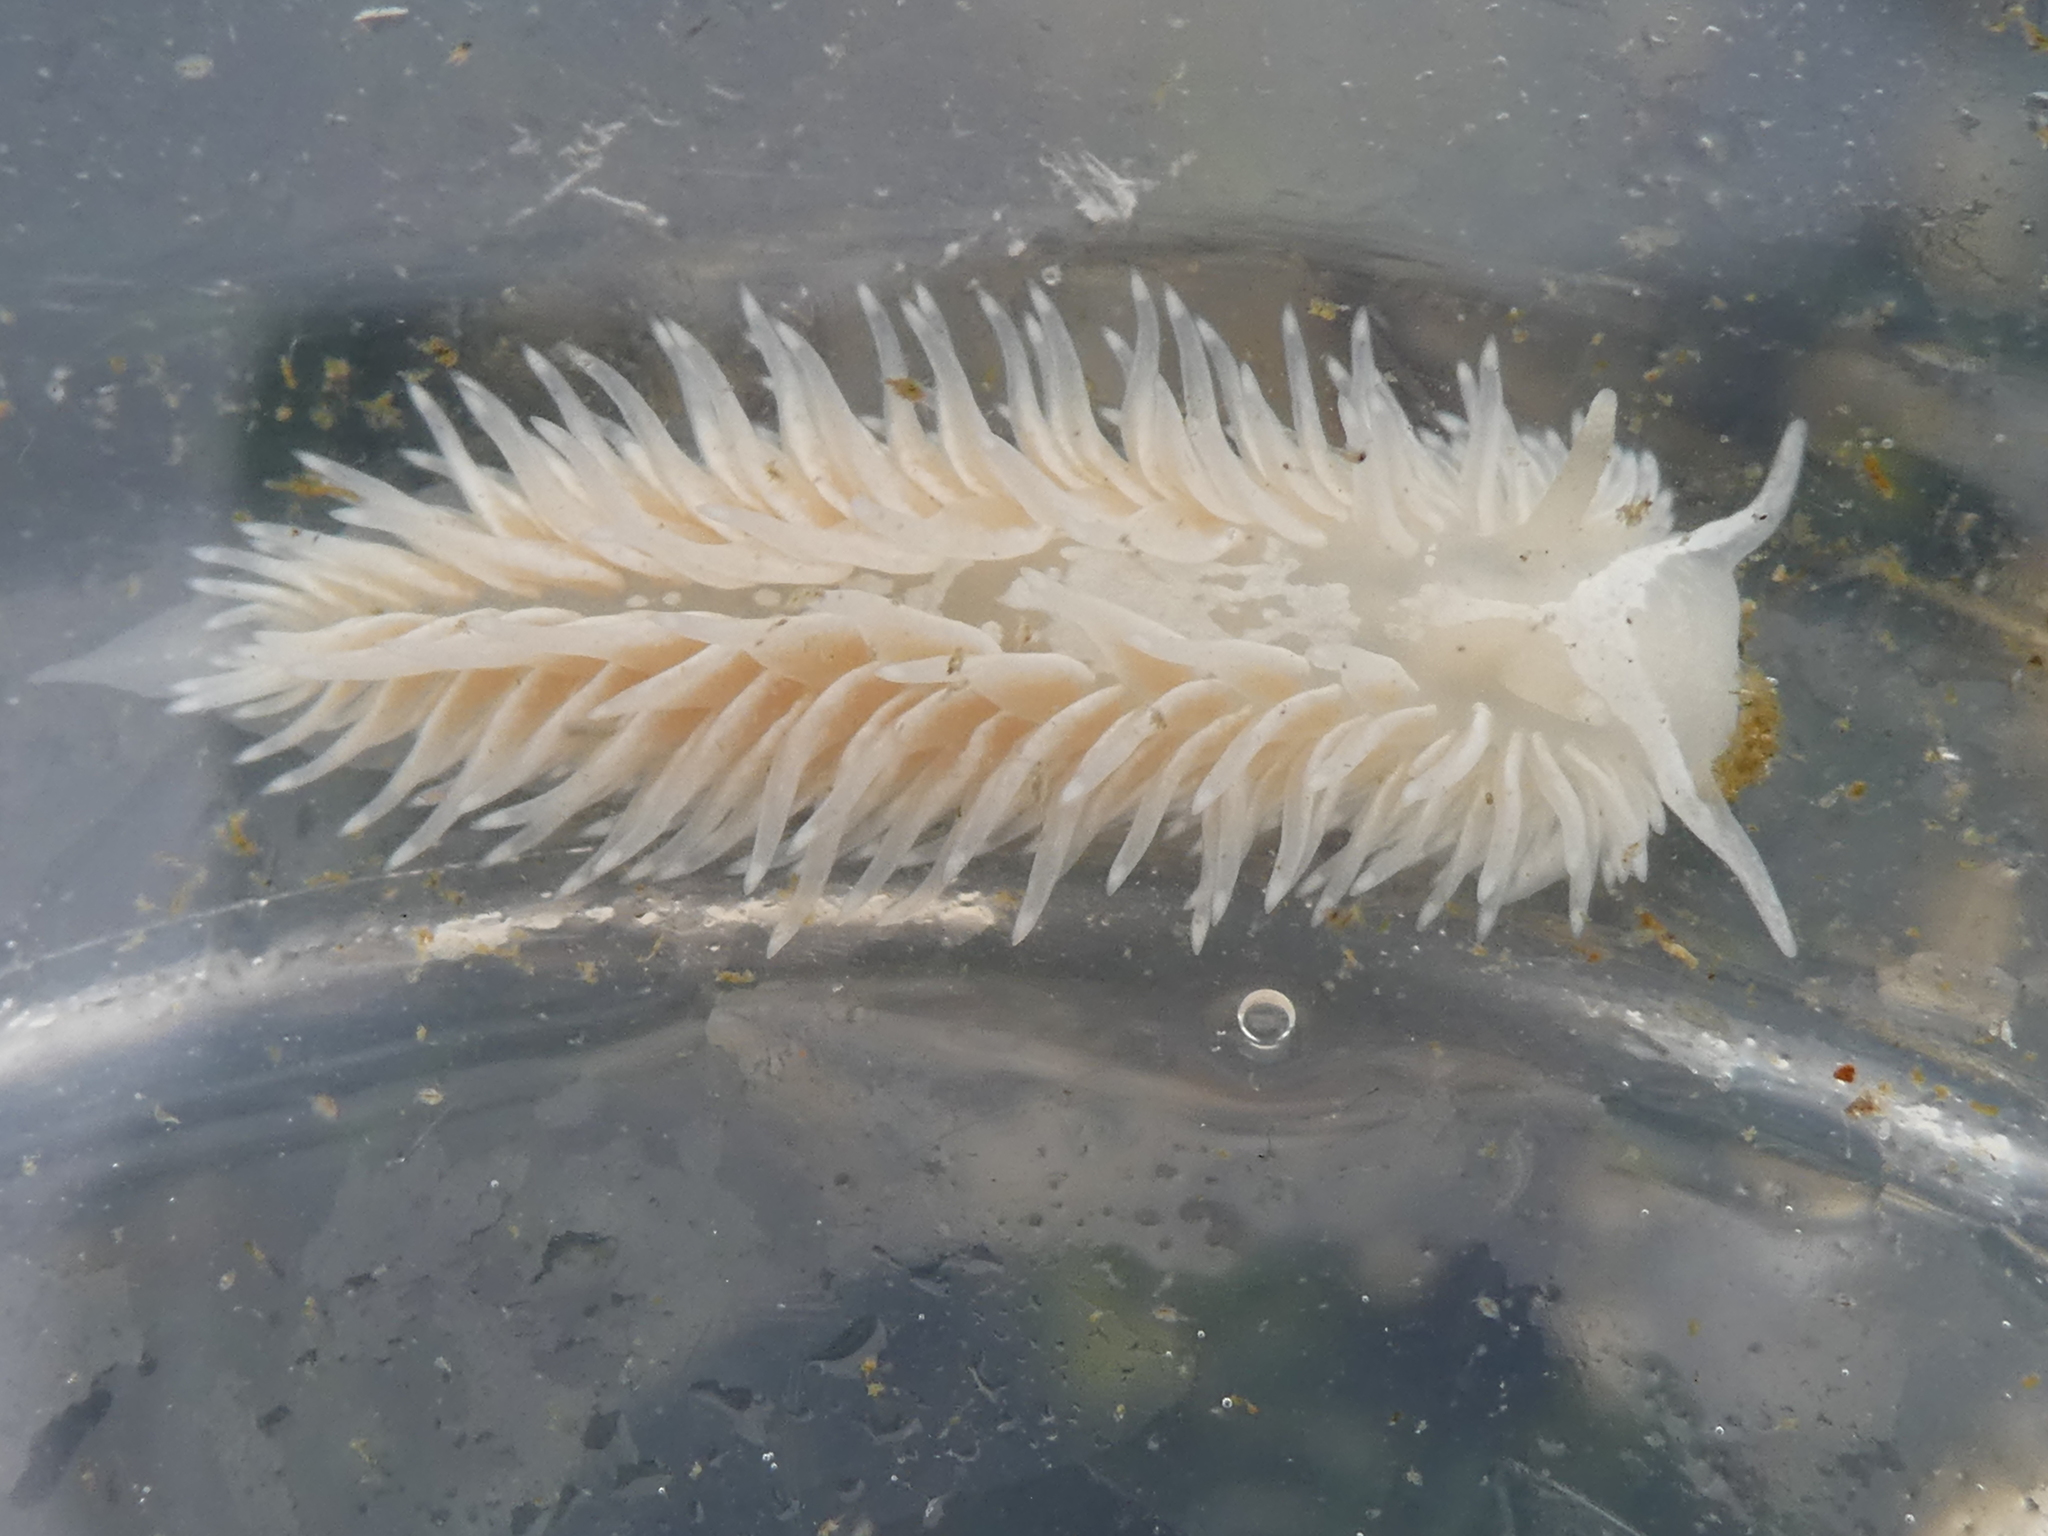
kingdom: Animalia
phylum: Mollusca
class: Gastropoda
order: Nudibranchia
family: Aeolidiidae
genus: Aeolidia
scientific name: Aeolidia loui
